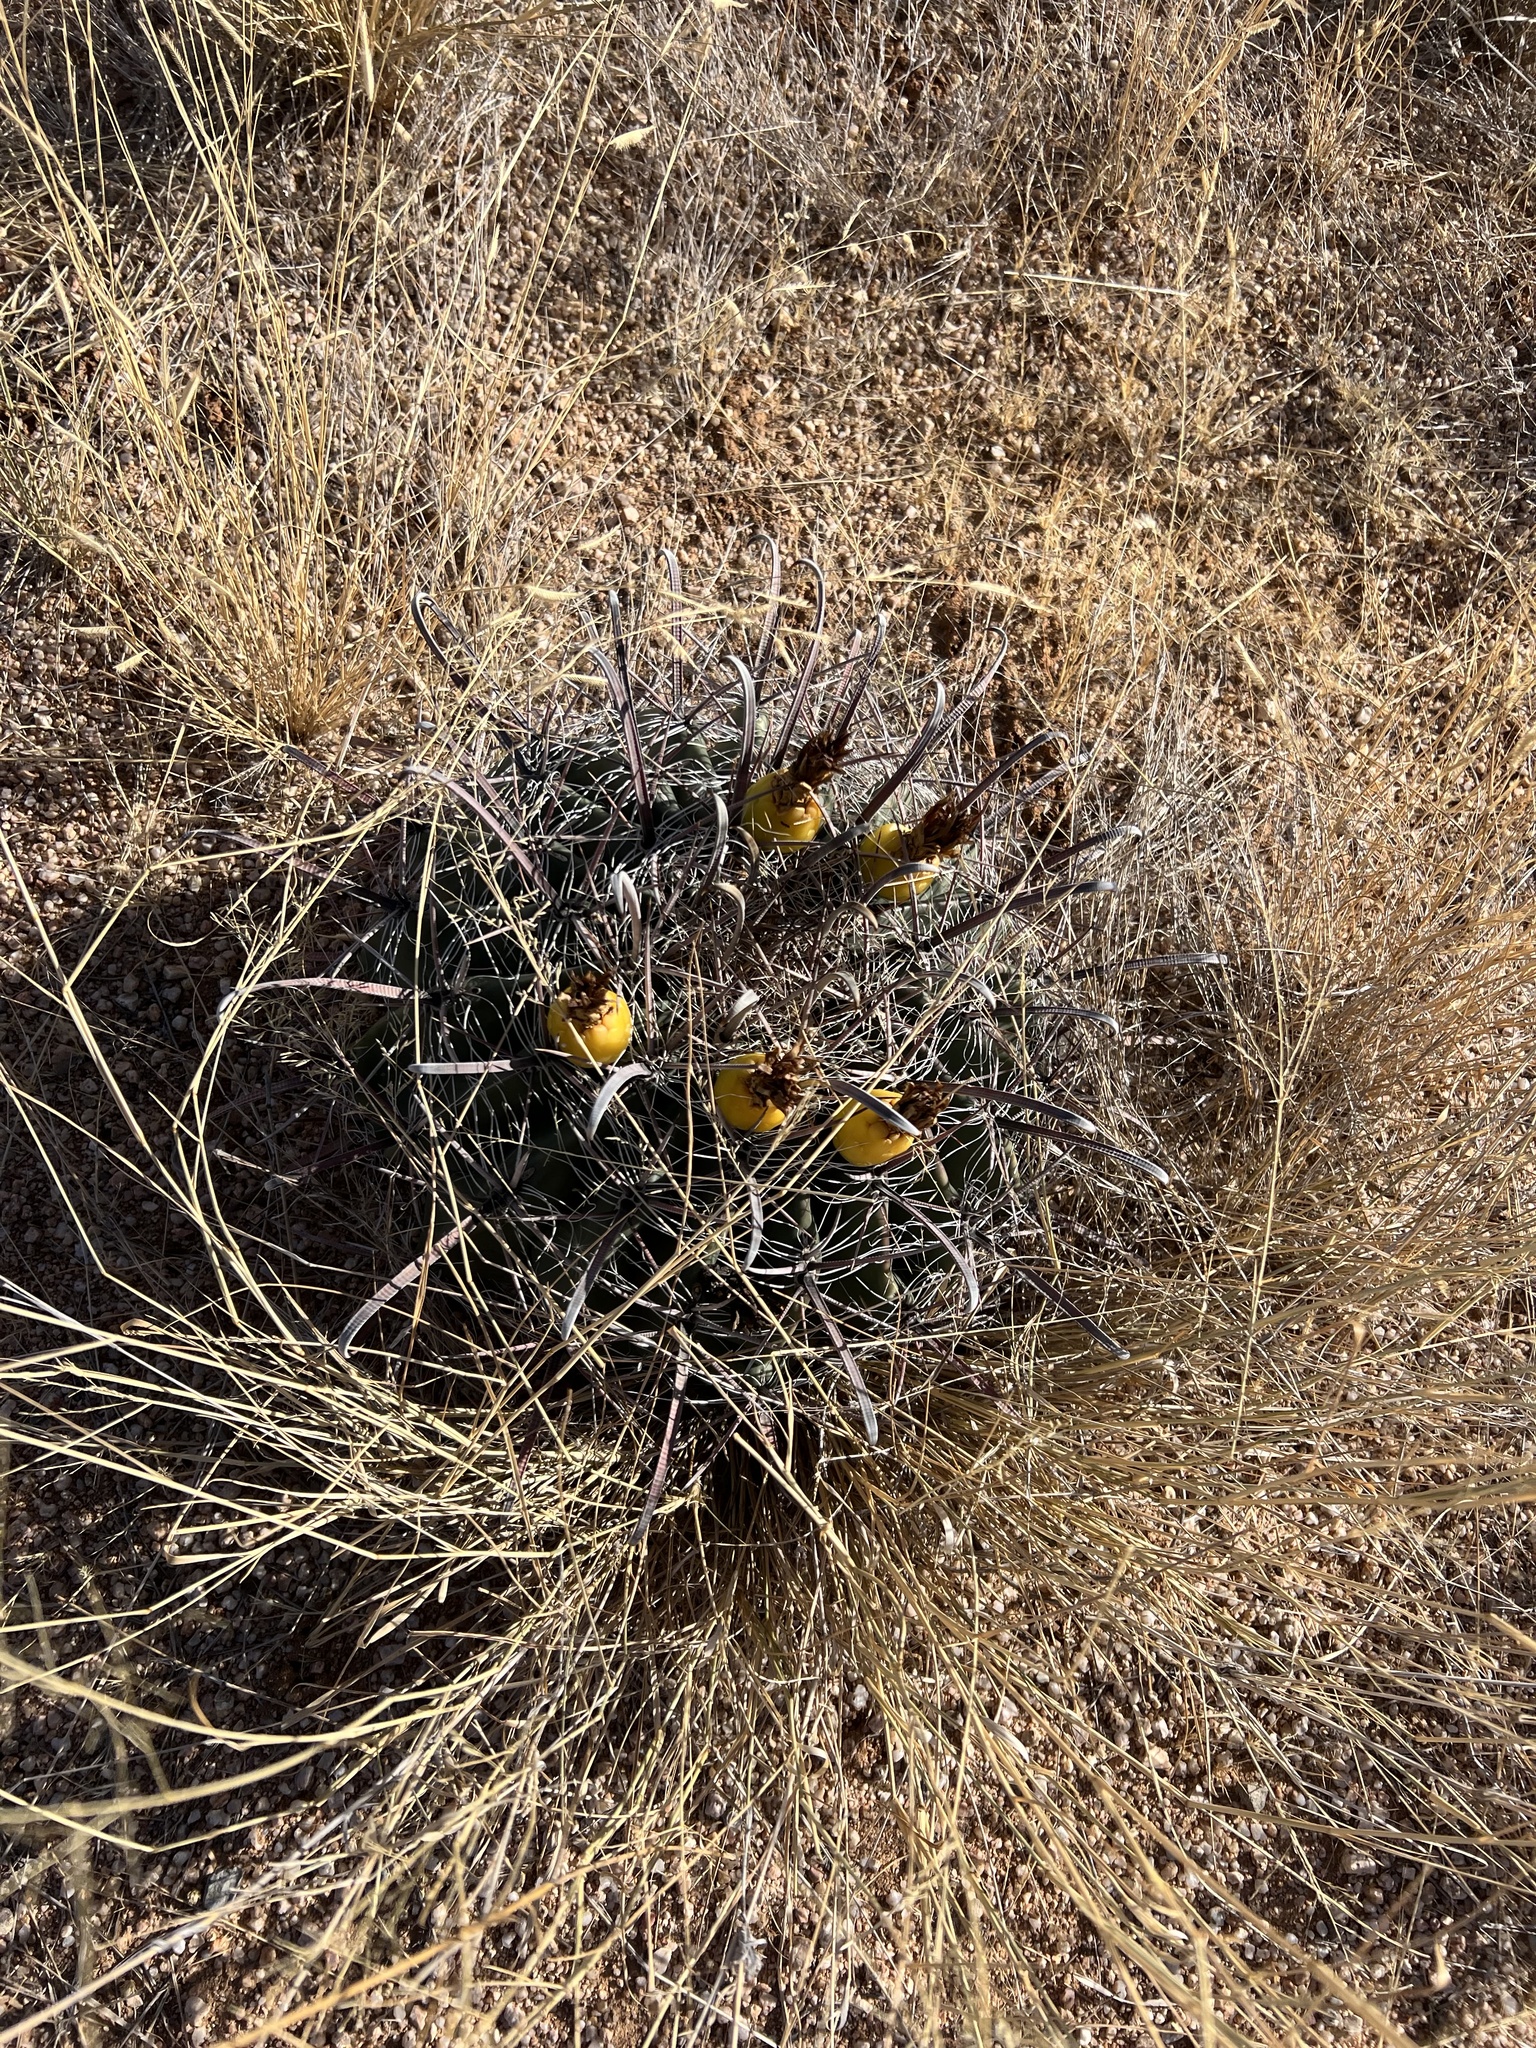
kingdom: Plantae
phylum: Tracheophyta
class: Magnoliopsida
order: Caryophyllales
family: Cactaceae
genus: Ferocactus
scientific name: Ferocactus wislizeni
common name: Candy barrel cactus
